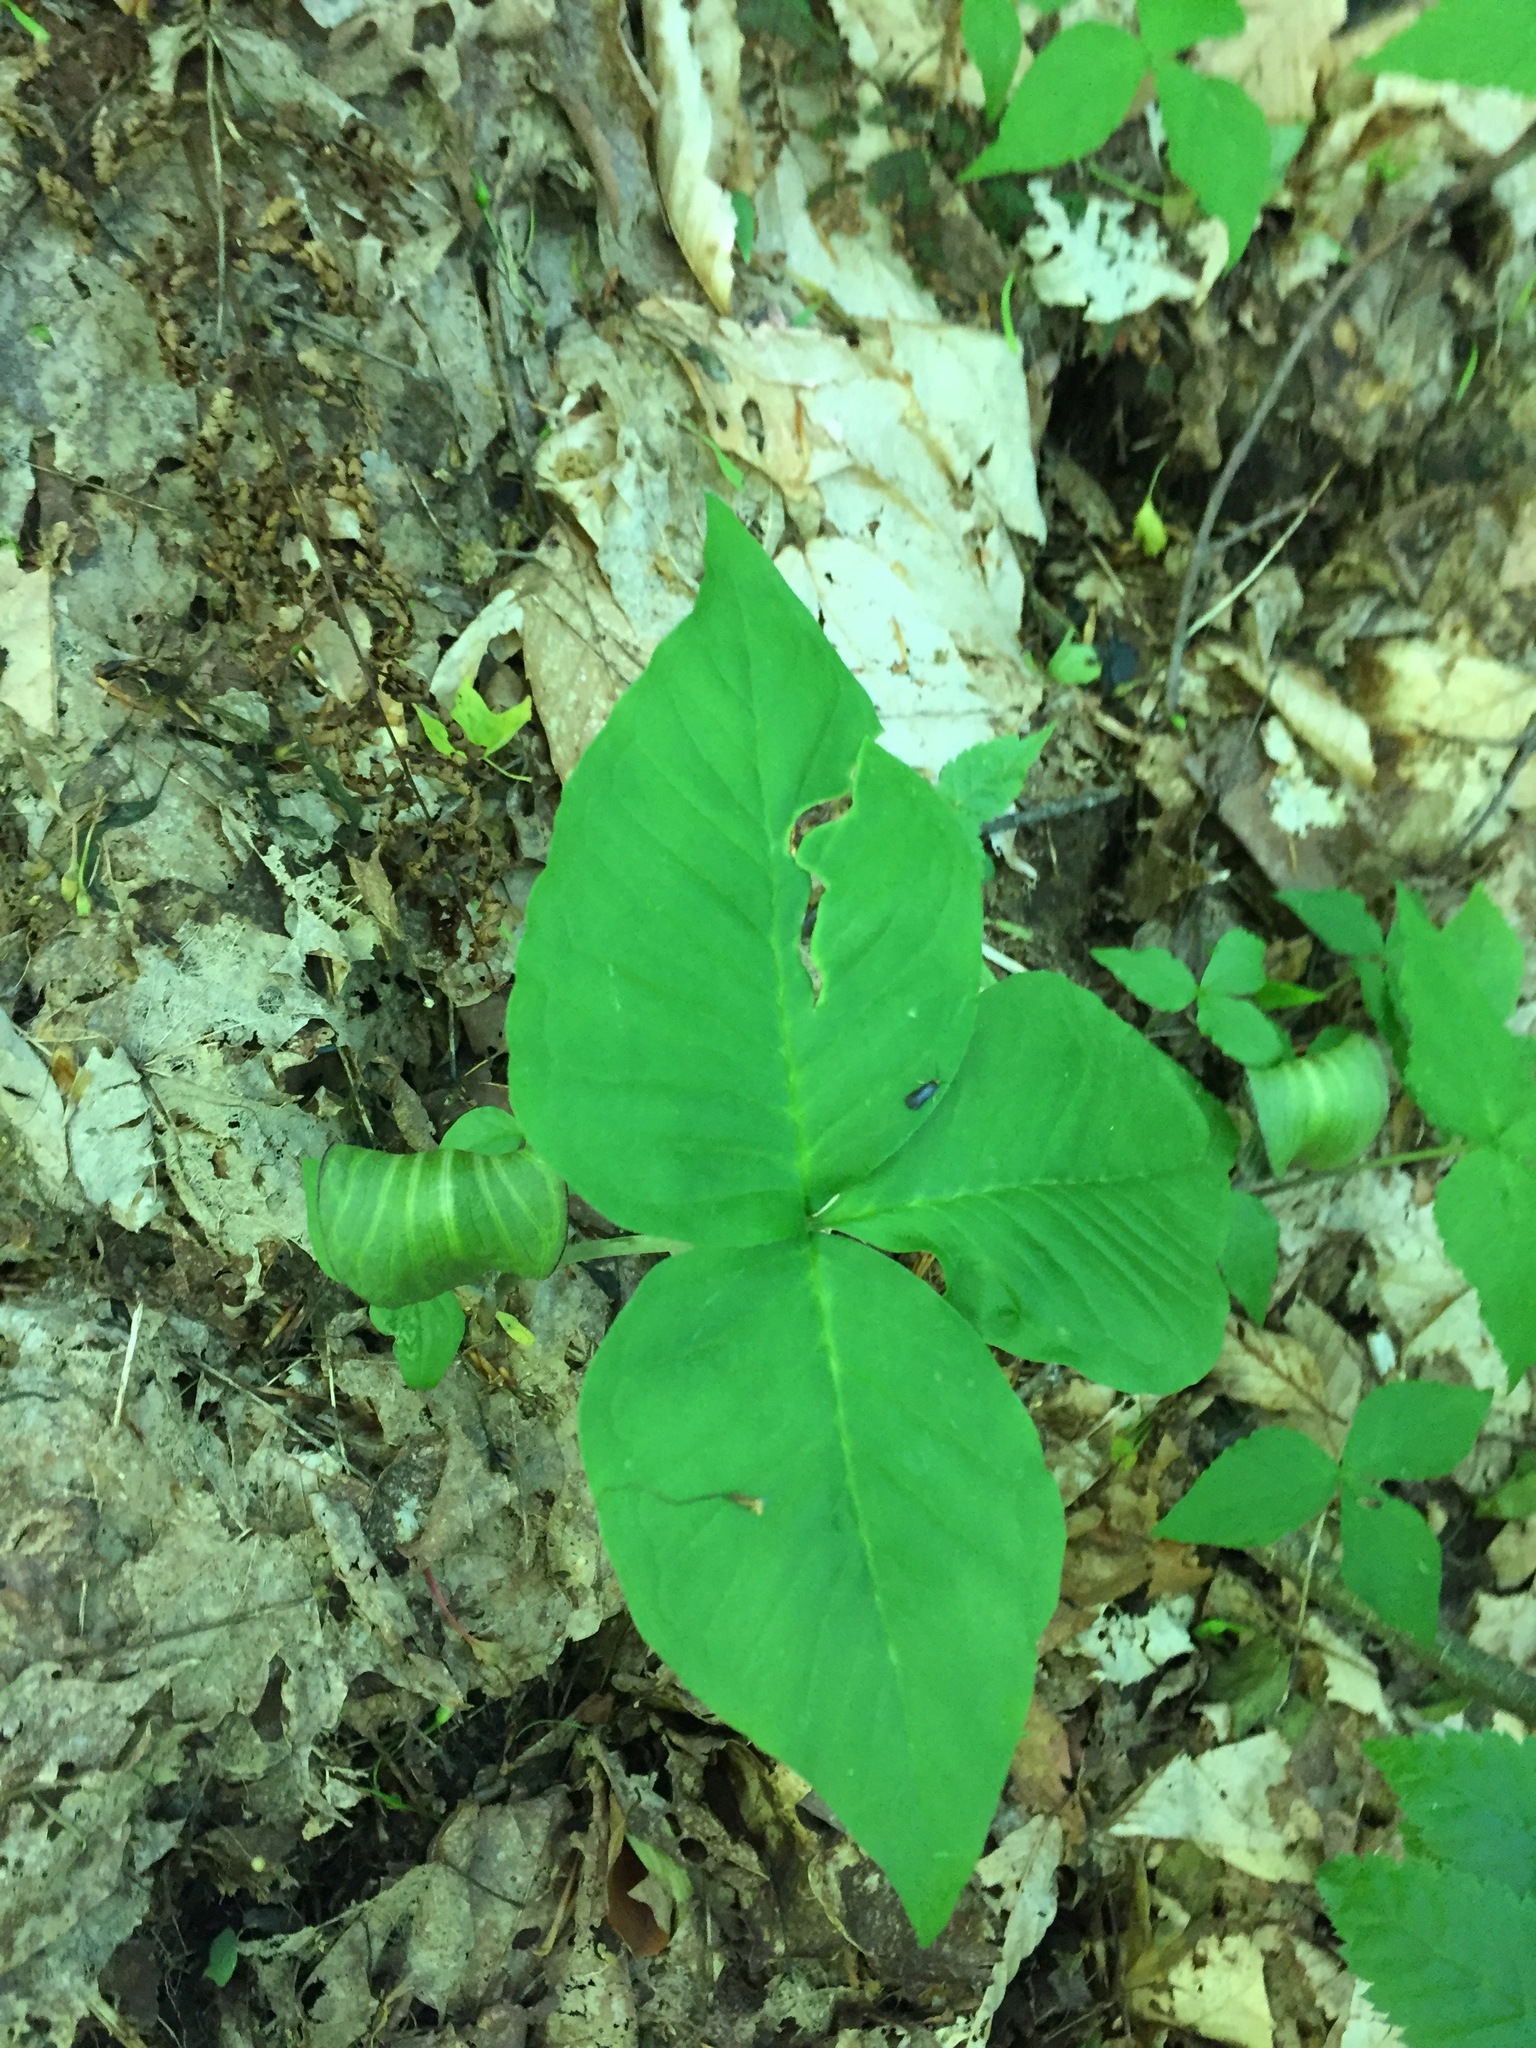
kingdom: Plantae
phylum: Tracheophyta
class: Liliopsida
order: Alismatales
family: Araceae
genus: Arisaema
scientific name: Arisaema triphyllum
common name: Jack-in-the-pulpit
